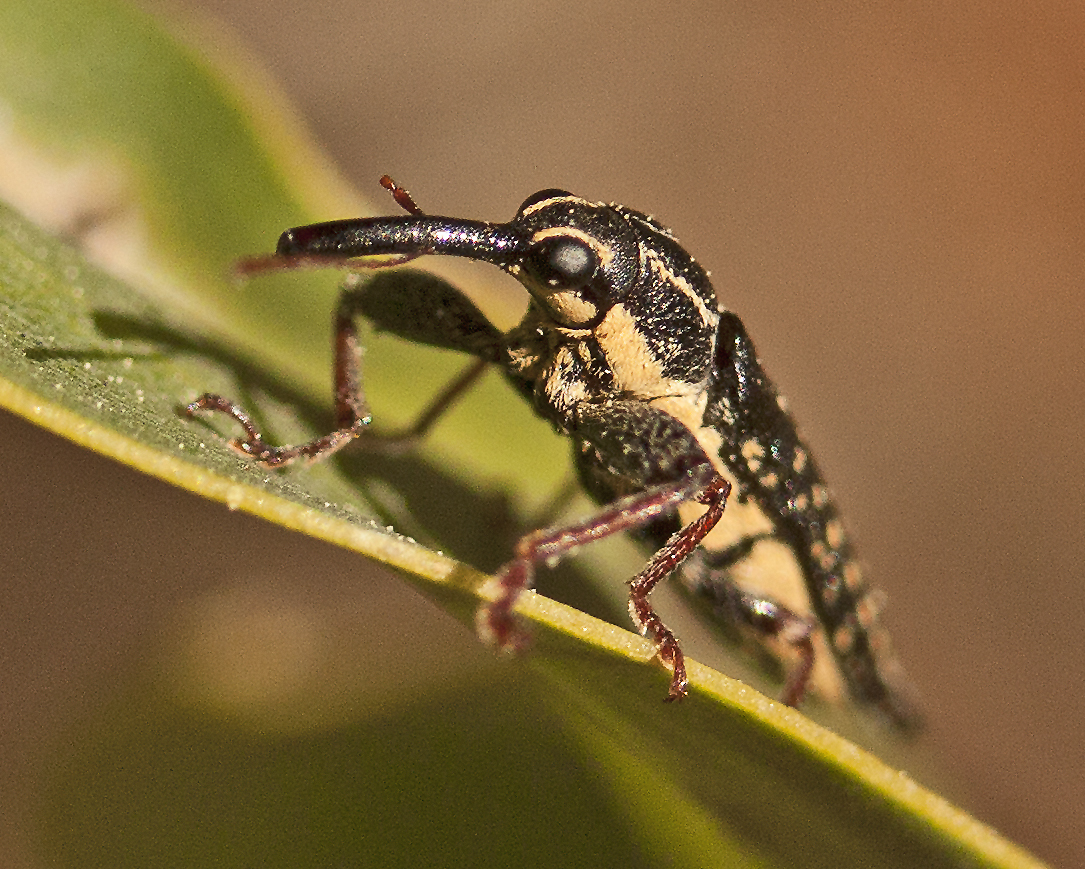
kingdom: Animalia
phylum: Arthropoda
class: Insecta
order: Coleoptera
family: Belidae
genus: Rhinotia
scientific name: Rhinotia lineata
